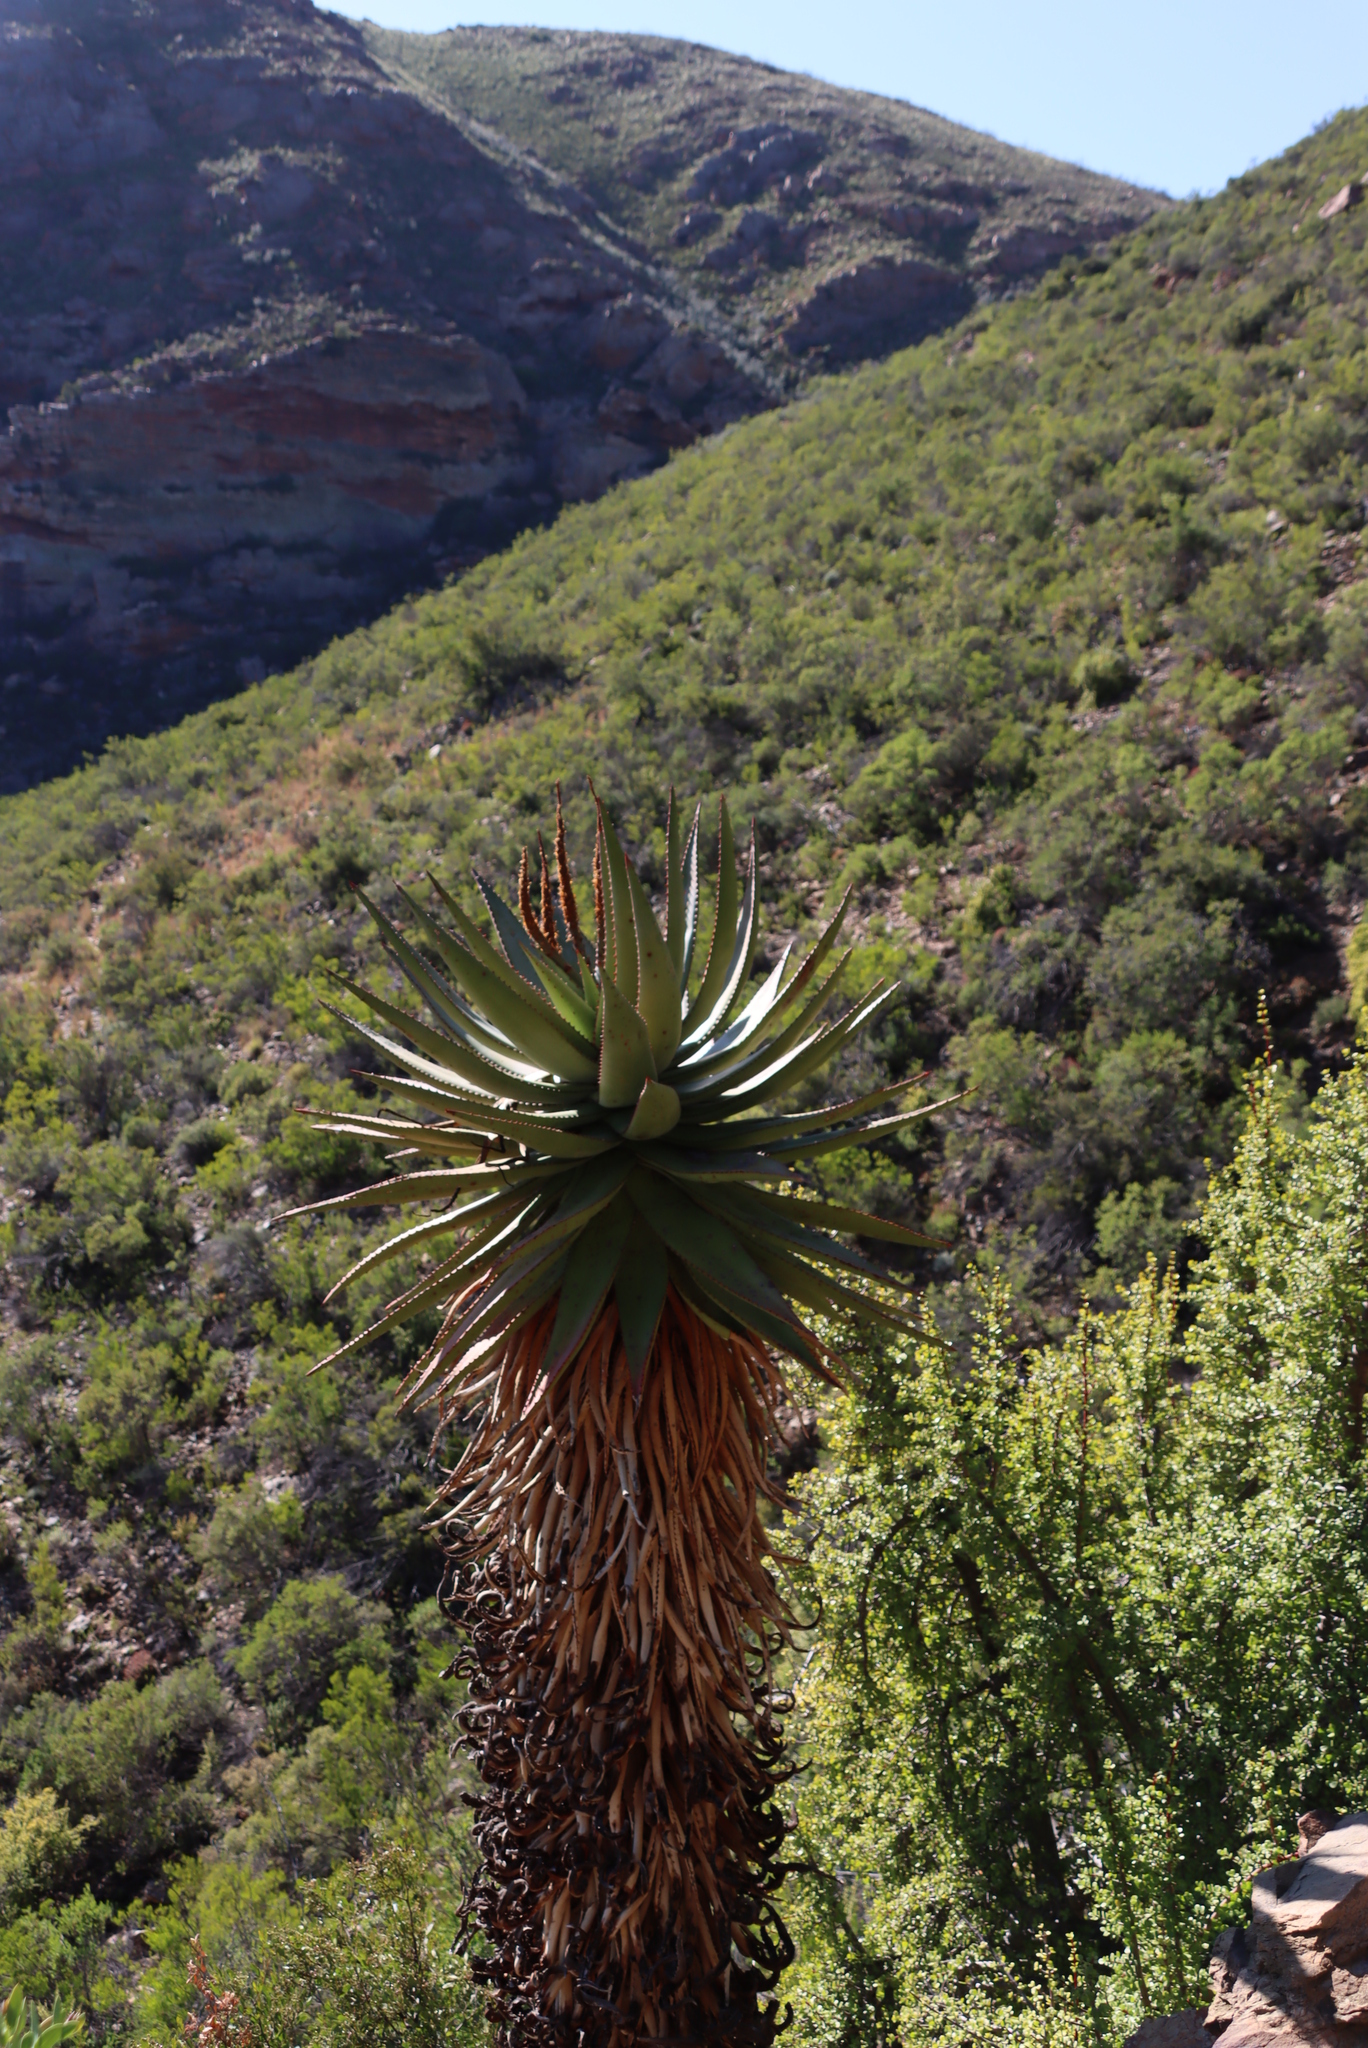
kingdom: Plantae
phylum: Tracheophyta
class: Liliopsida
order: Asparagales
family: Asphodelaceae
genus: Aloe
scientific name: Aloe ferox
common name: Bitter aloe
